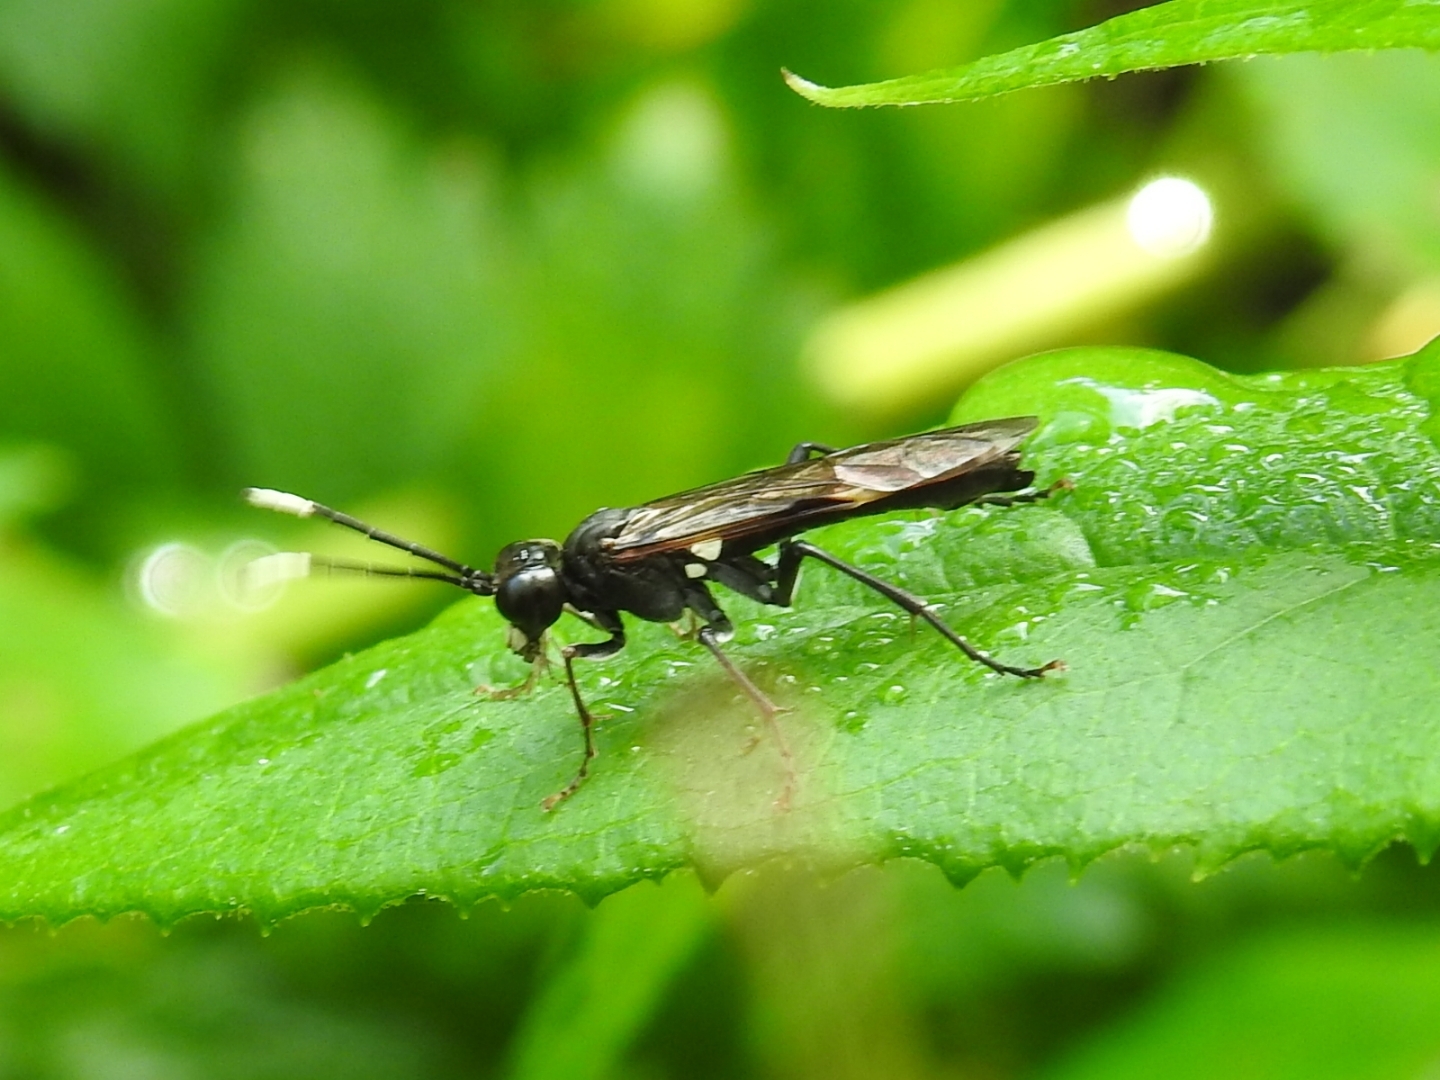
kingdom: Animalia
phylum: Arthropoda
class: Insecta
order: Hymenoptera
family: Tenthredinidae
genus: Tenthredo
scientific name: Tenthredo livida
